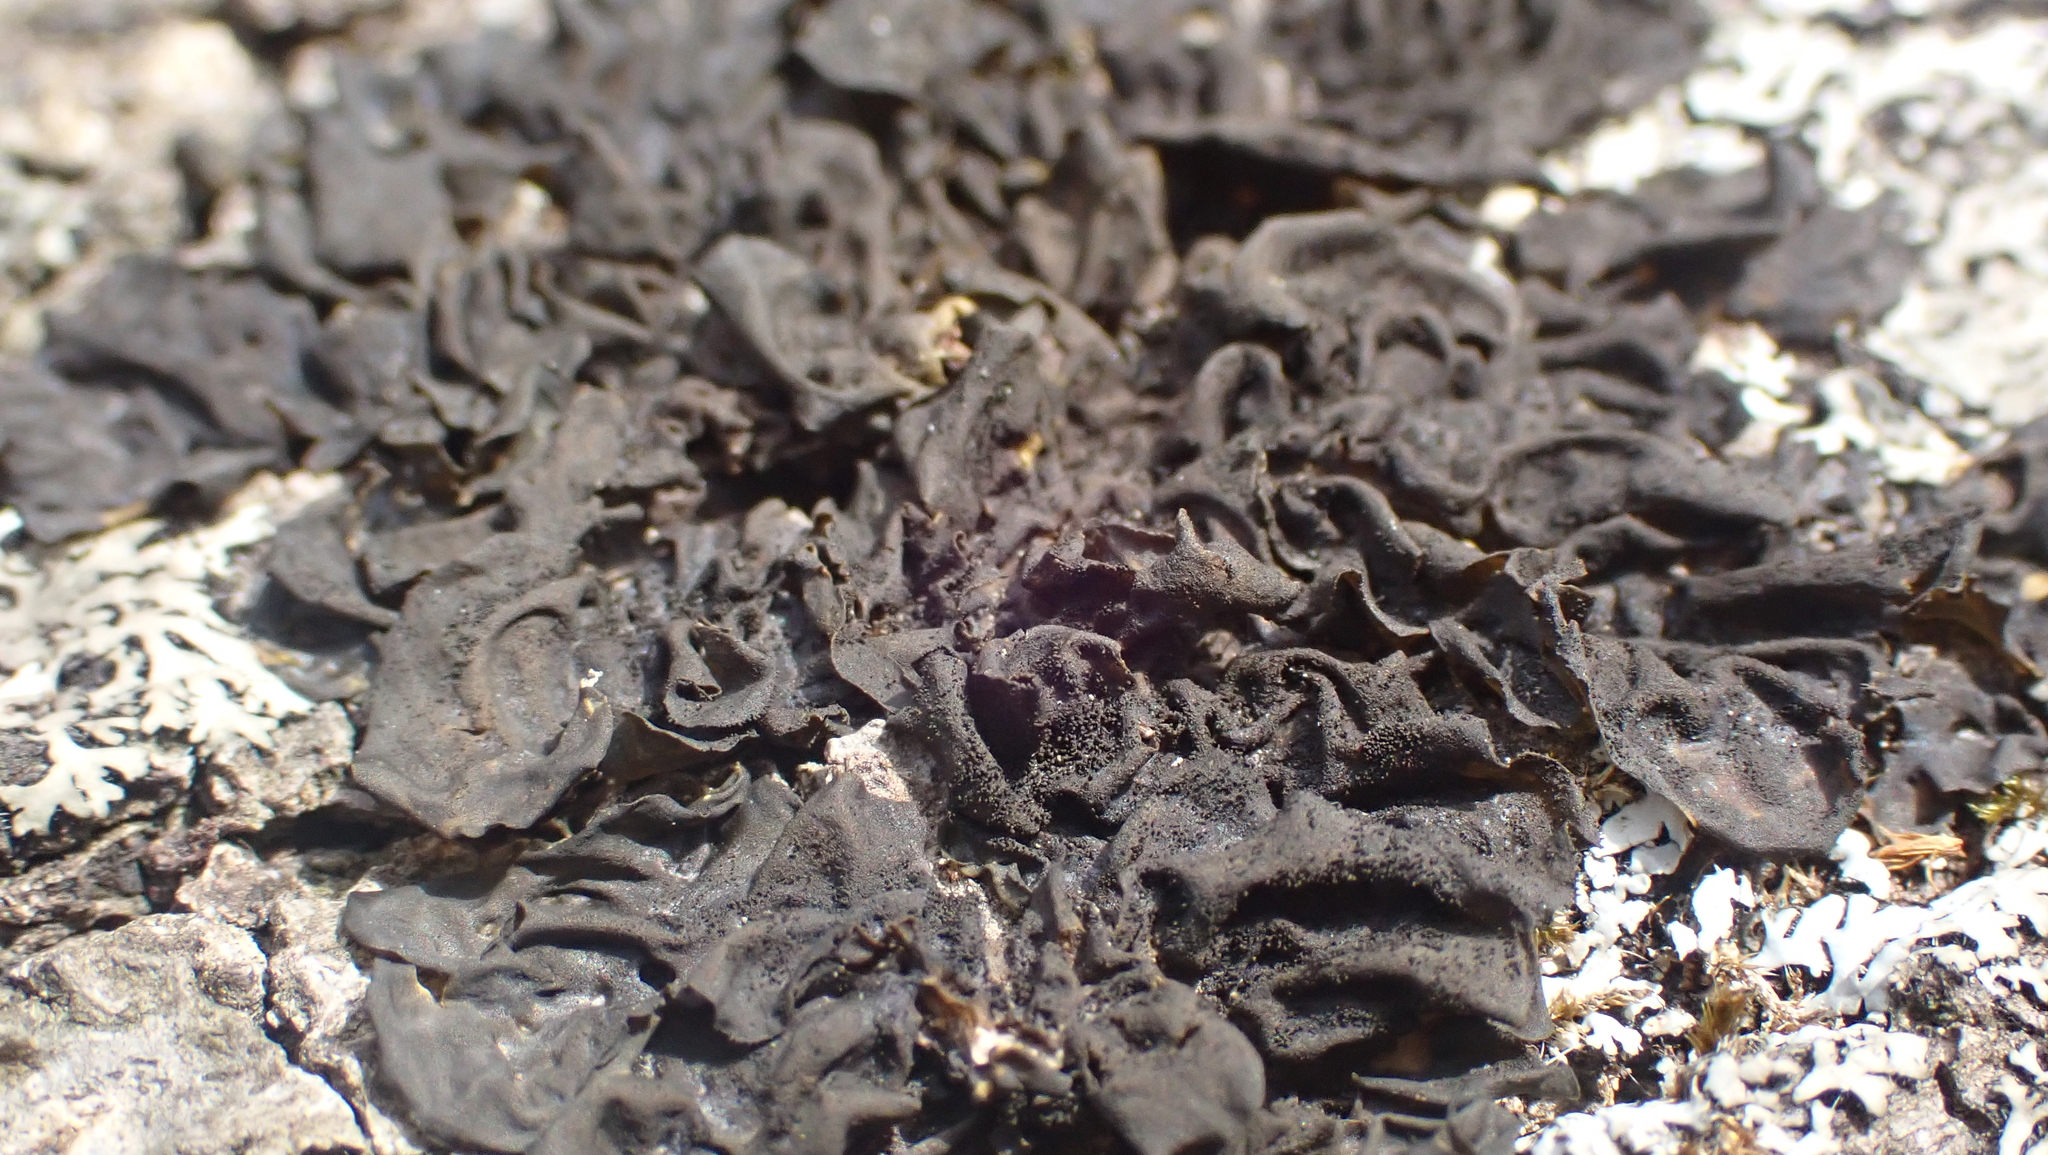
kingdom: Fungi
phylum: Ascomycota
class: Lecanoromycetes
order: Peltigerales
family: Collemataceae
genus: Leptogium
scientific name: Leptogium cyanescens
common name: Blue jellyskin
